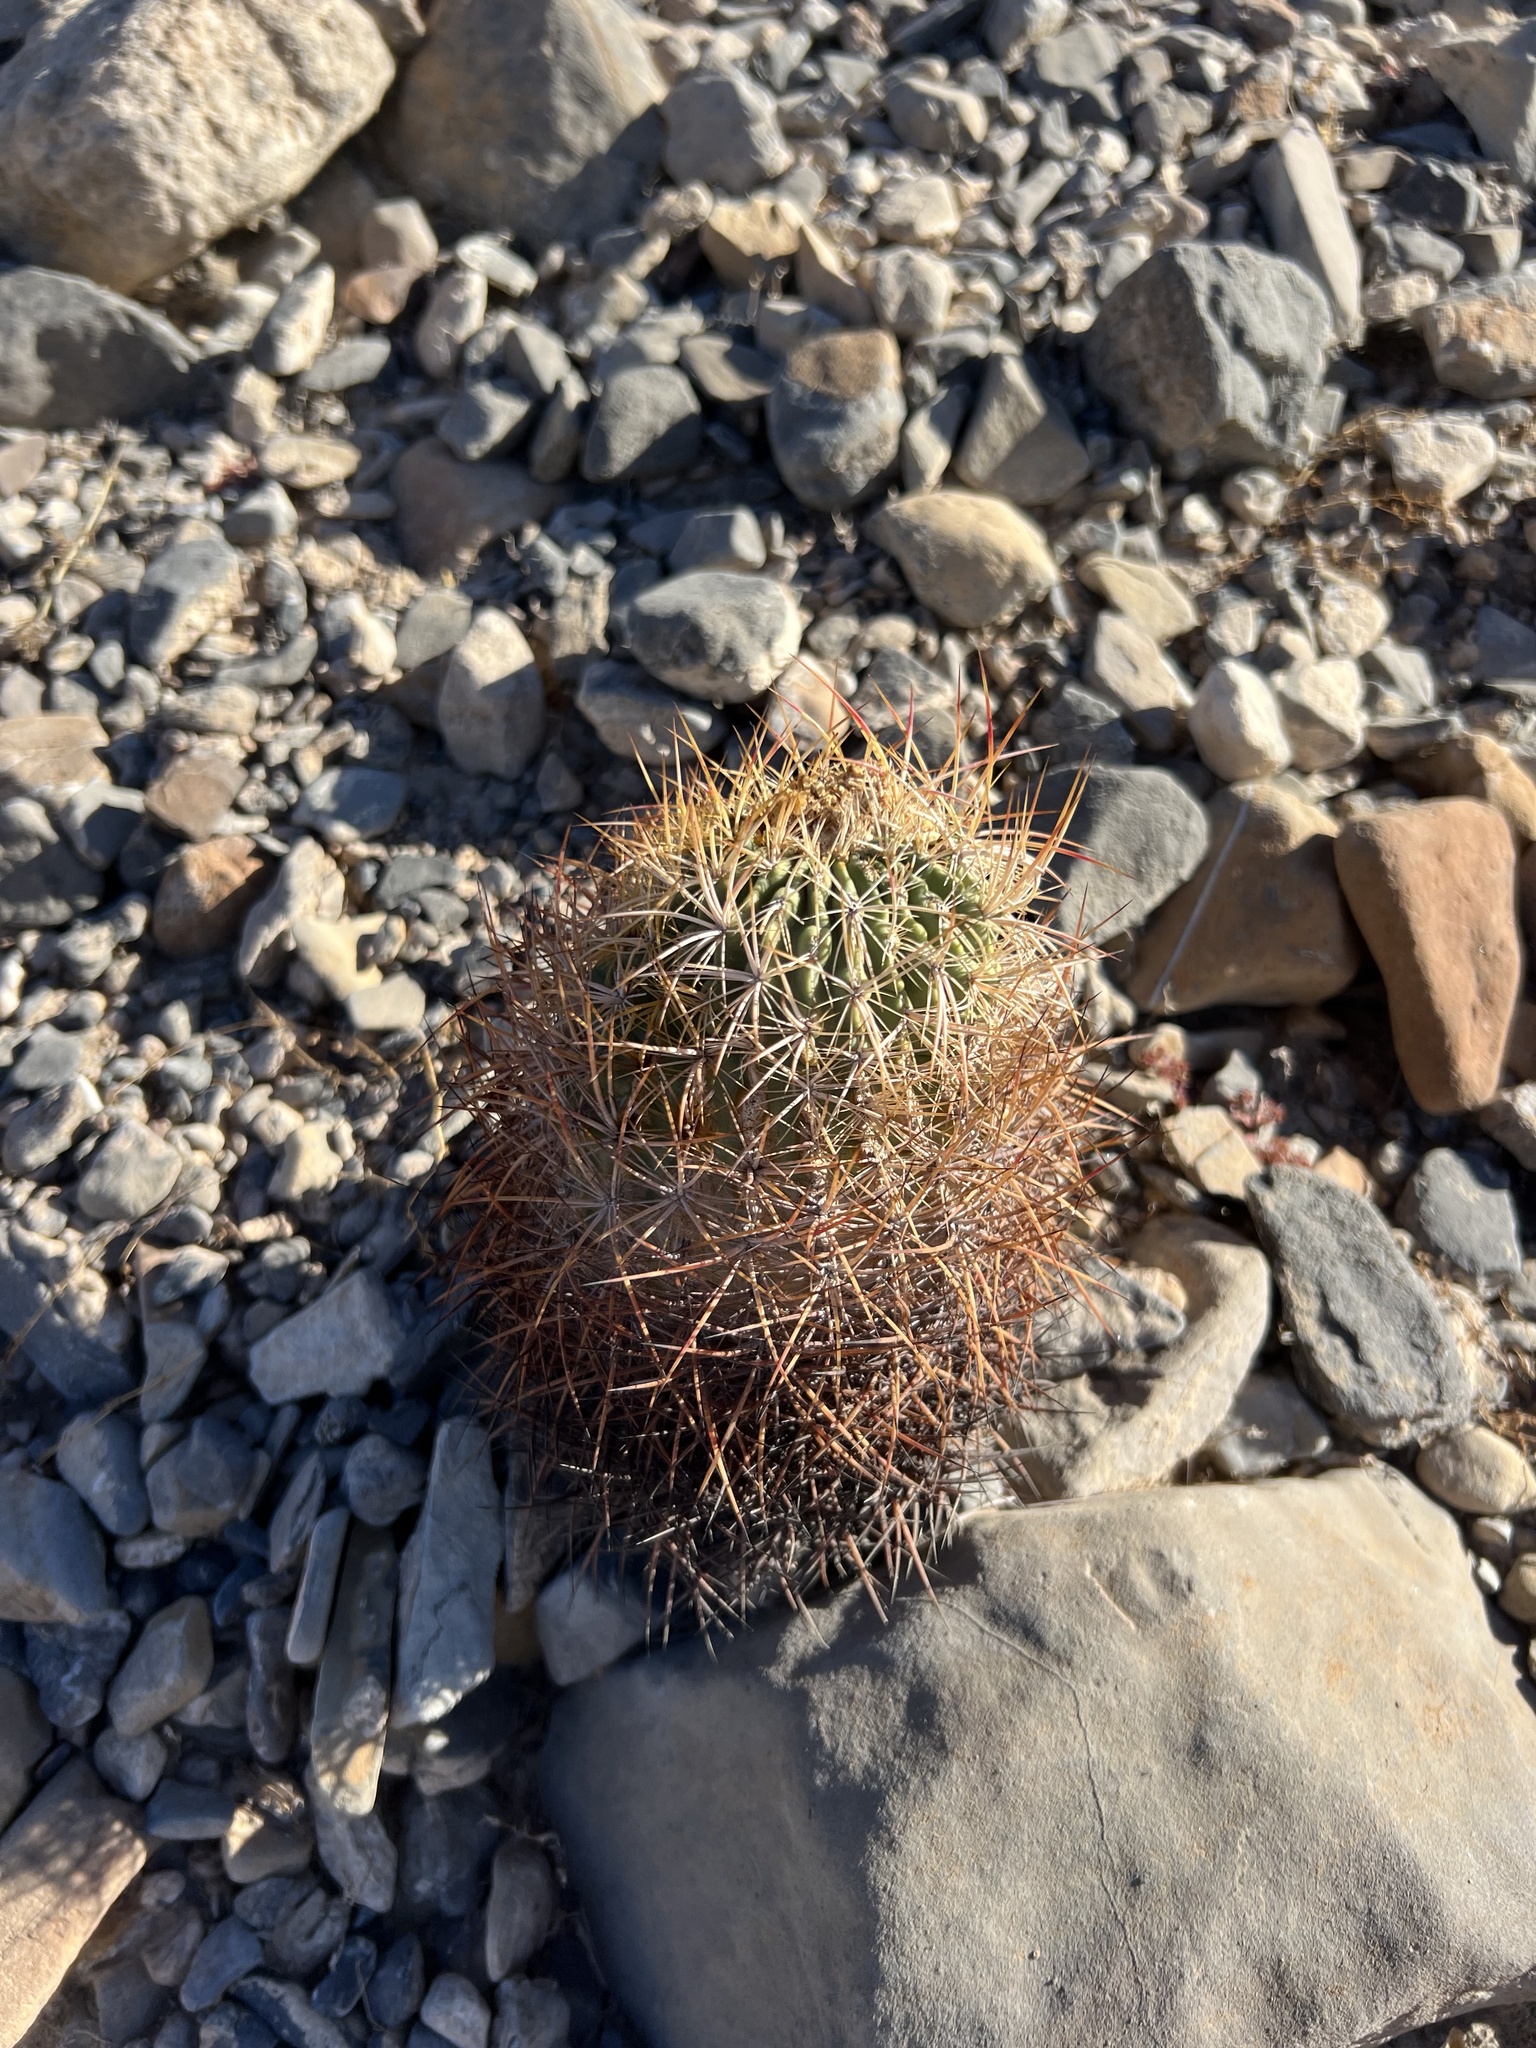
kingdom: Plantae
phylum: Tracheophyta
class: Magnoliopsida
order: Caryophyllales
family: Cactaceae
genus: Sclerocactus
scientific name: Sclerocactus johnsonii
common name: Eight-spine fishhook cactus
